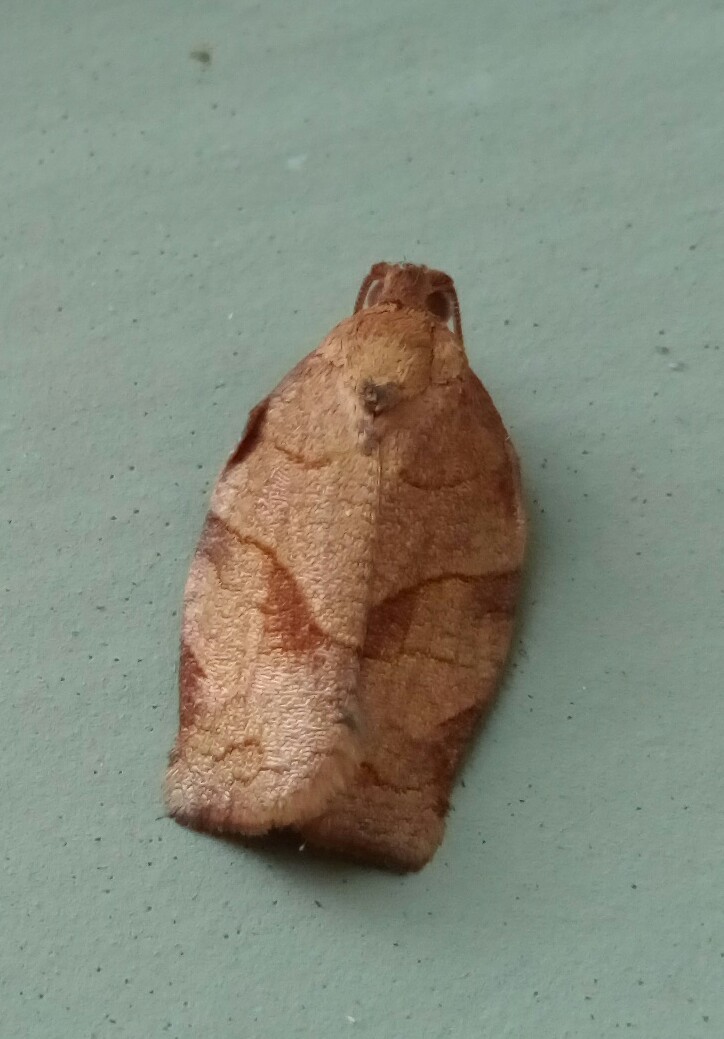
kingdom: Animalia
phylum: Arthropoda
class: Insecta
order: Lepidoptera
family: Tortricidae
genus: Choristoneura
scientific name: Choristoneura rosaceana
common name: Oblique-banded leafroller moth
